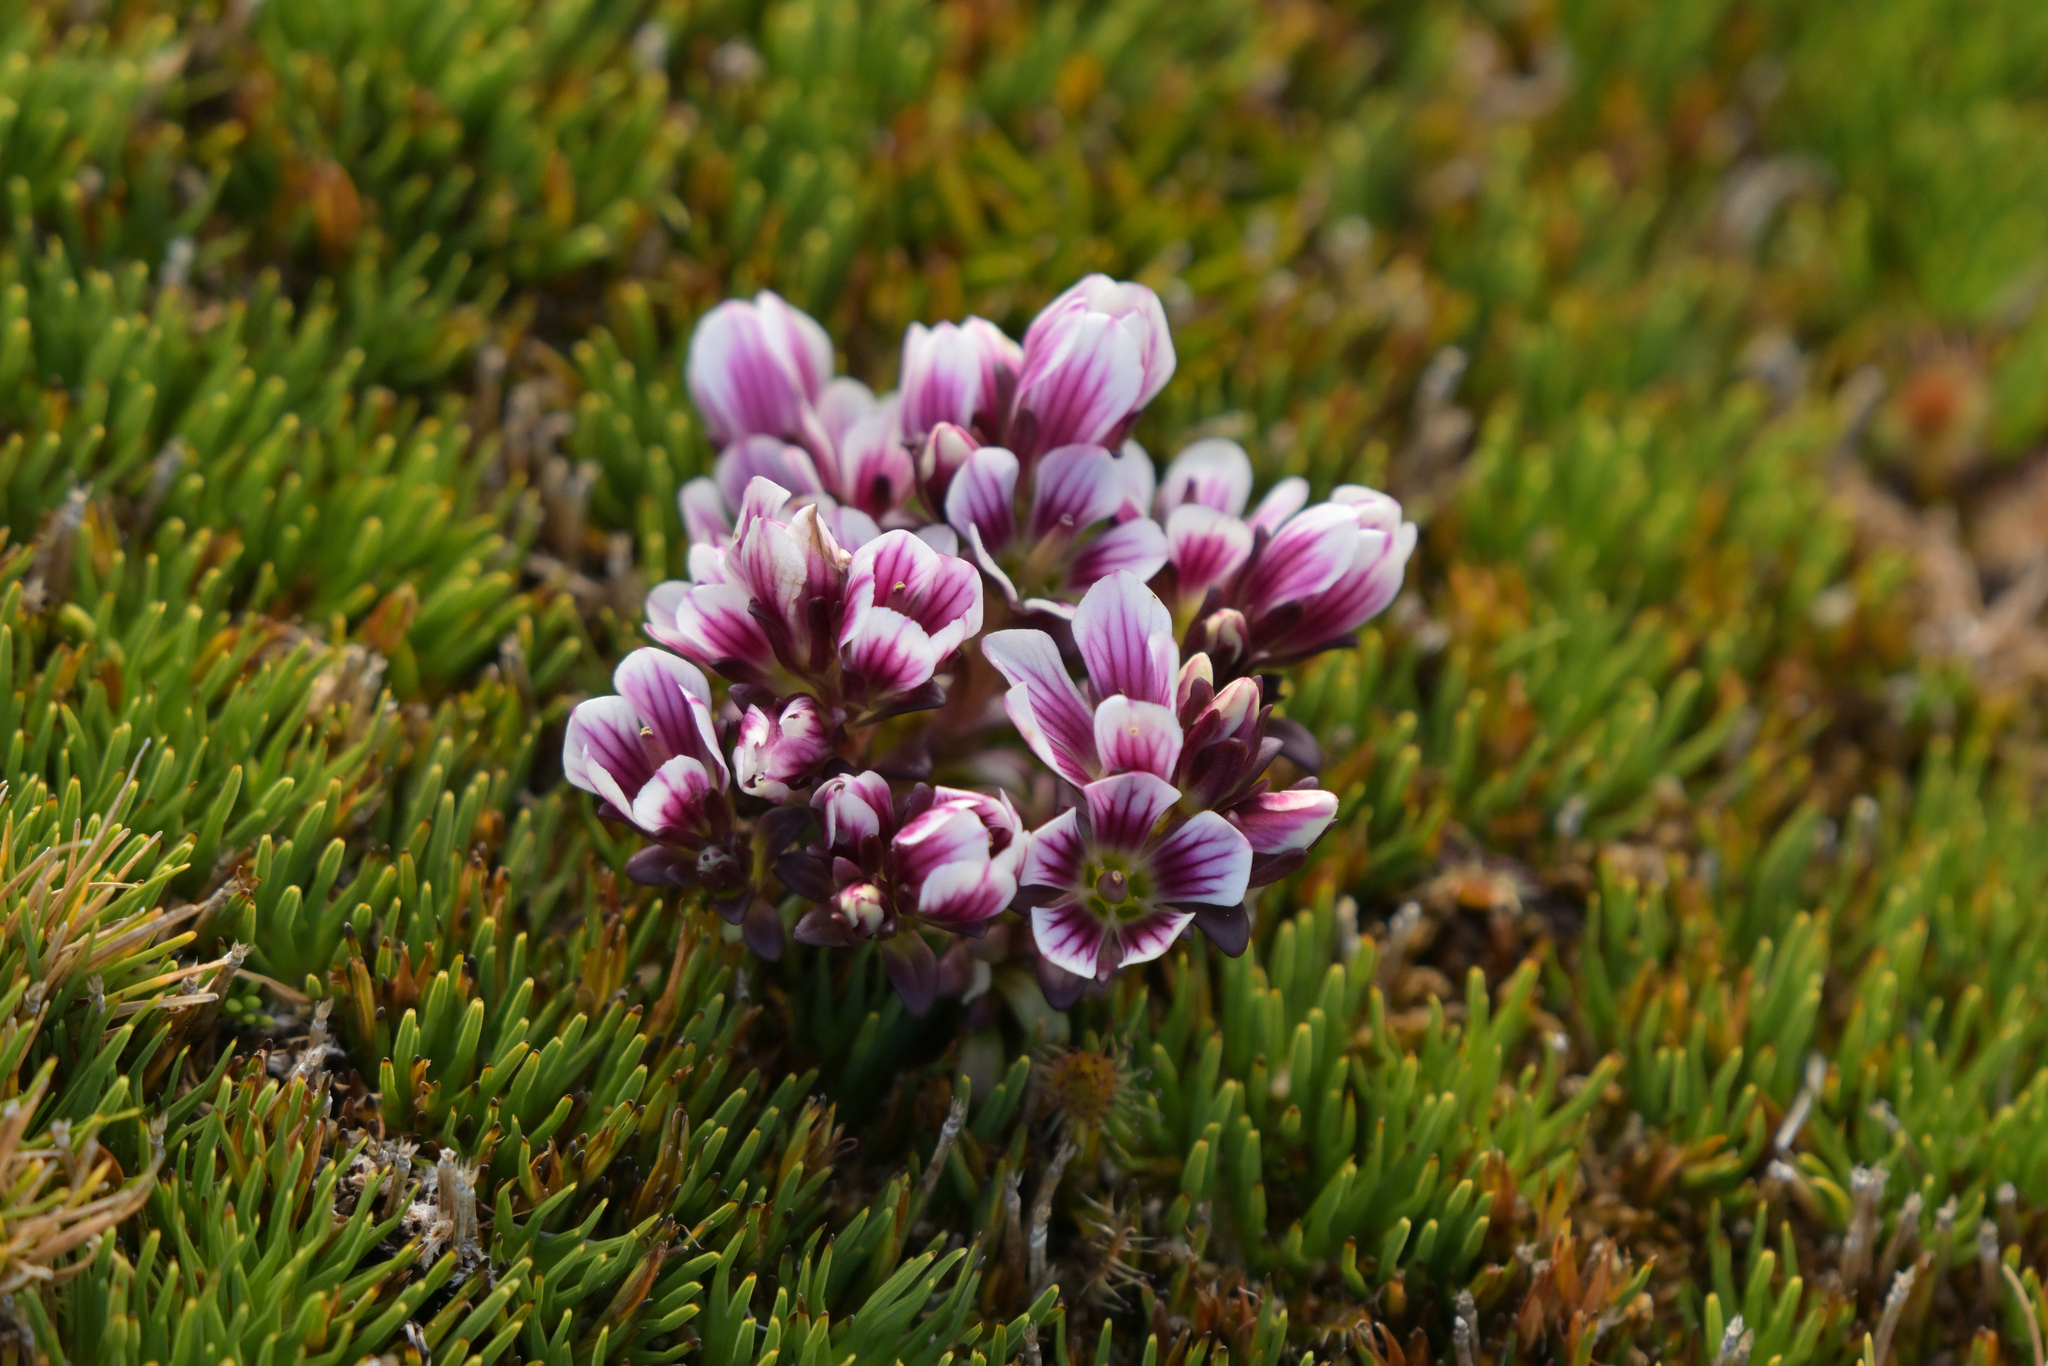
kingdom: Plantae
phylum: Tracheophyta
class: Magnoliopsida
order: Gentianales
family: Gentianaceae
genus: Gentianella
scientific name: Gentianella concinna
